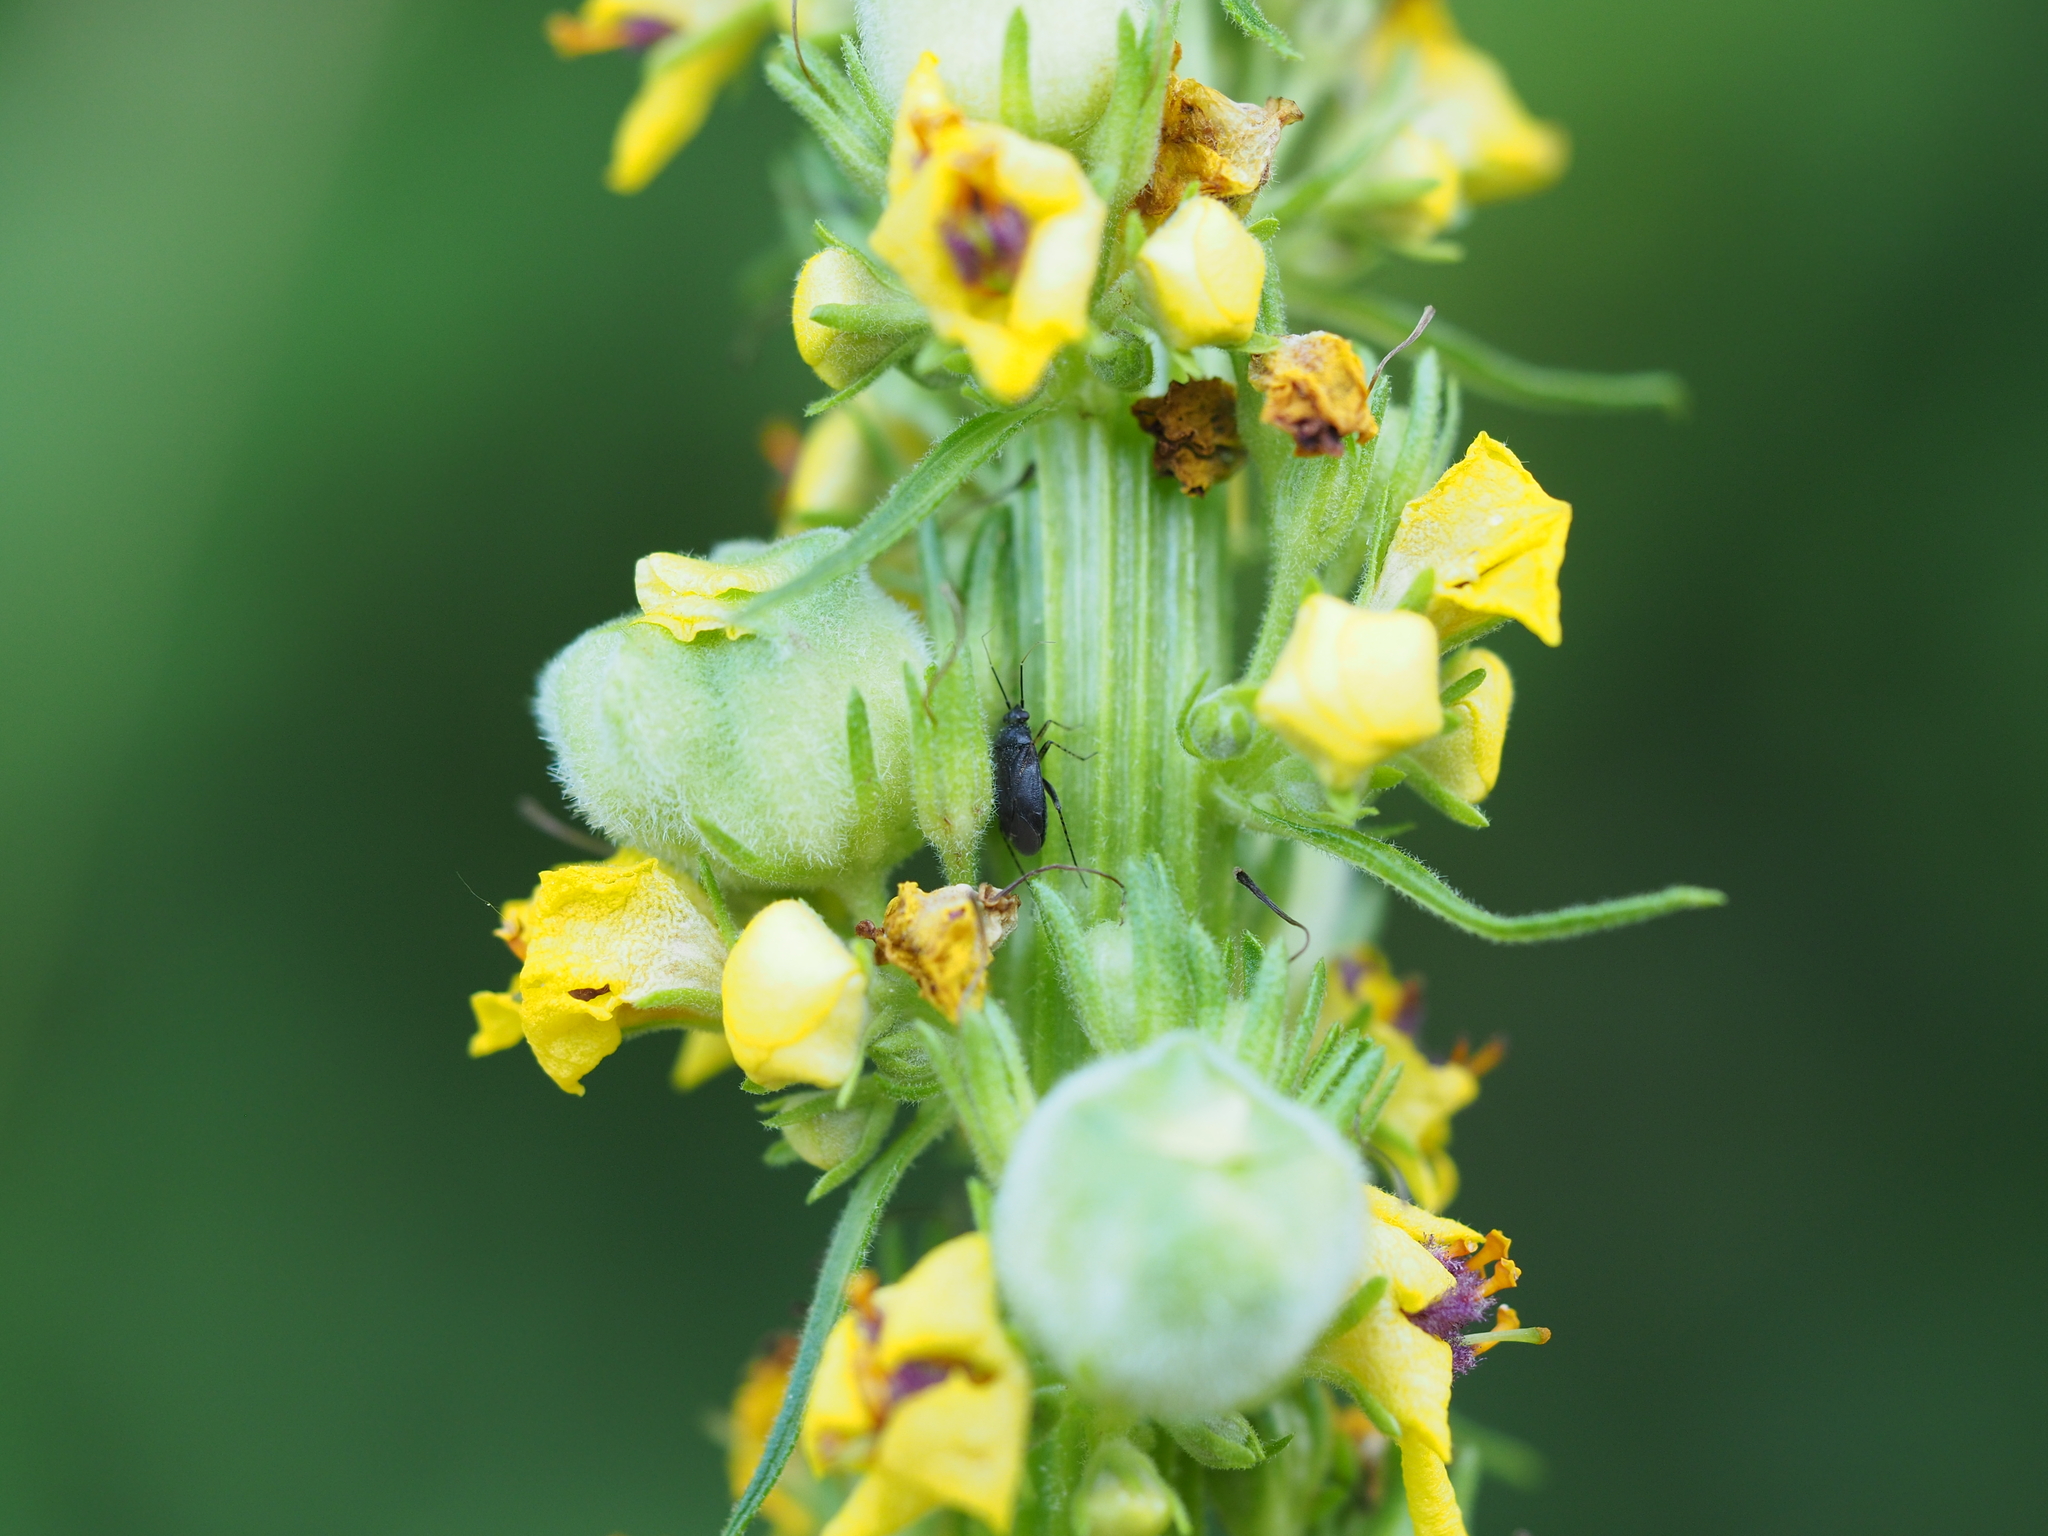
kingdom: Animalia
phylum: Arthropoda
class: Insecta
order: Hemiptera
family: Miridae
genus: Plagiognathus
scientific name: Plagiognathus arbustorum
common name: Plant bug
